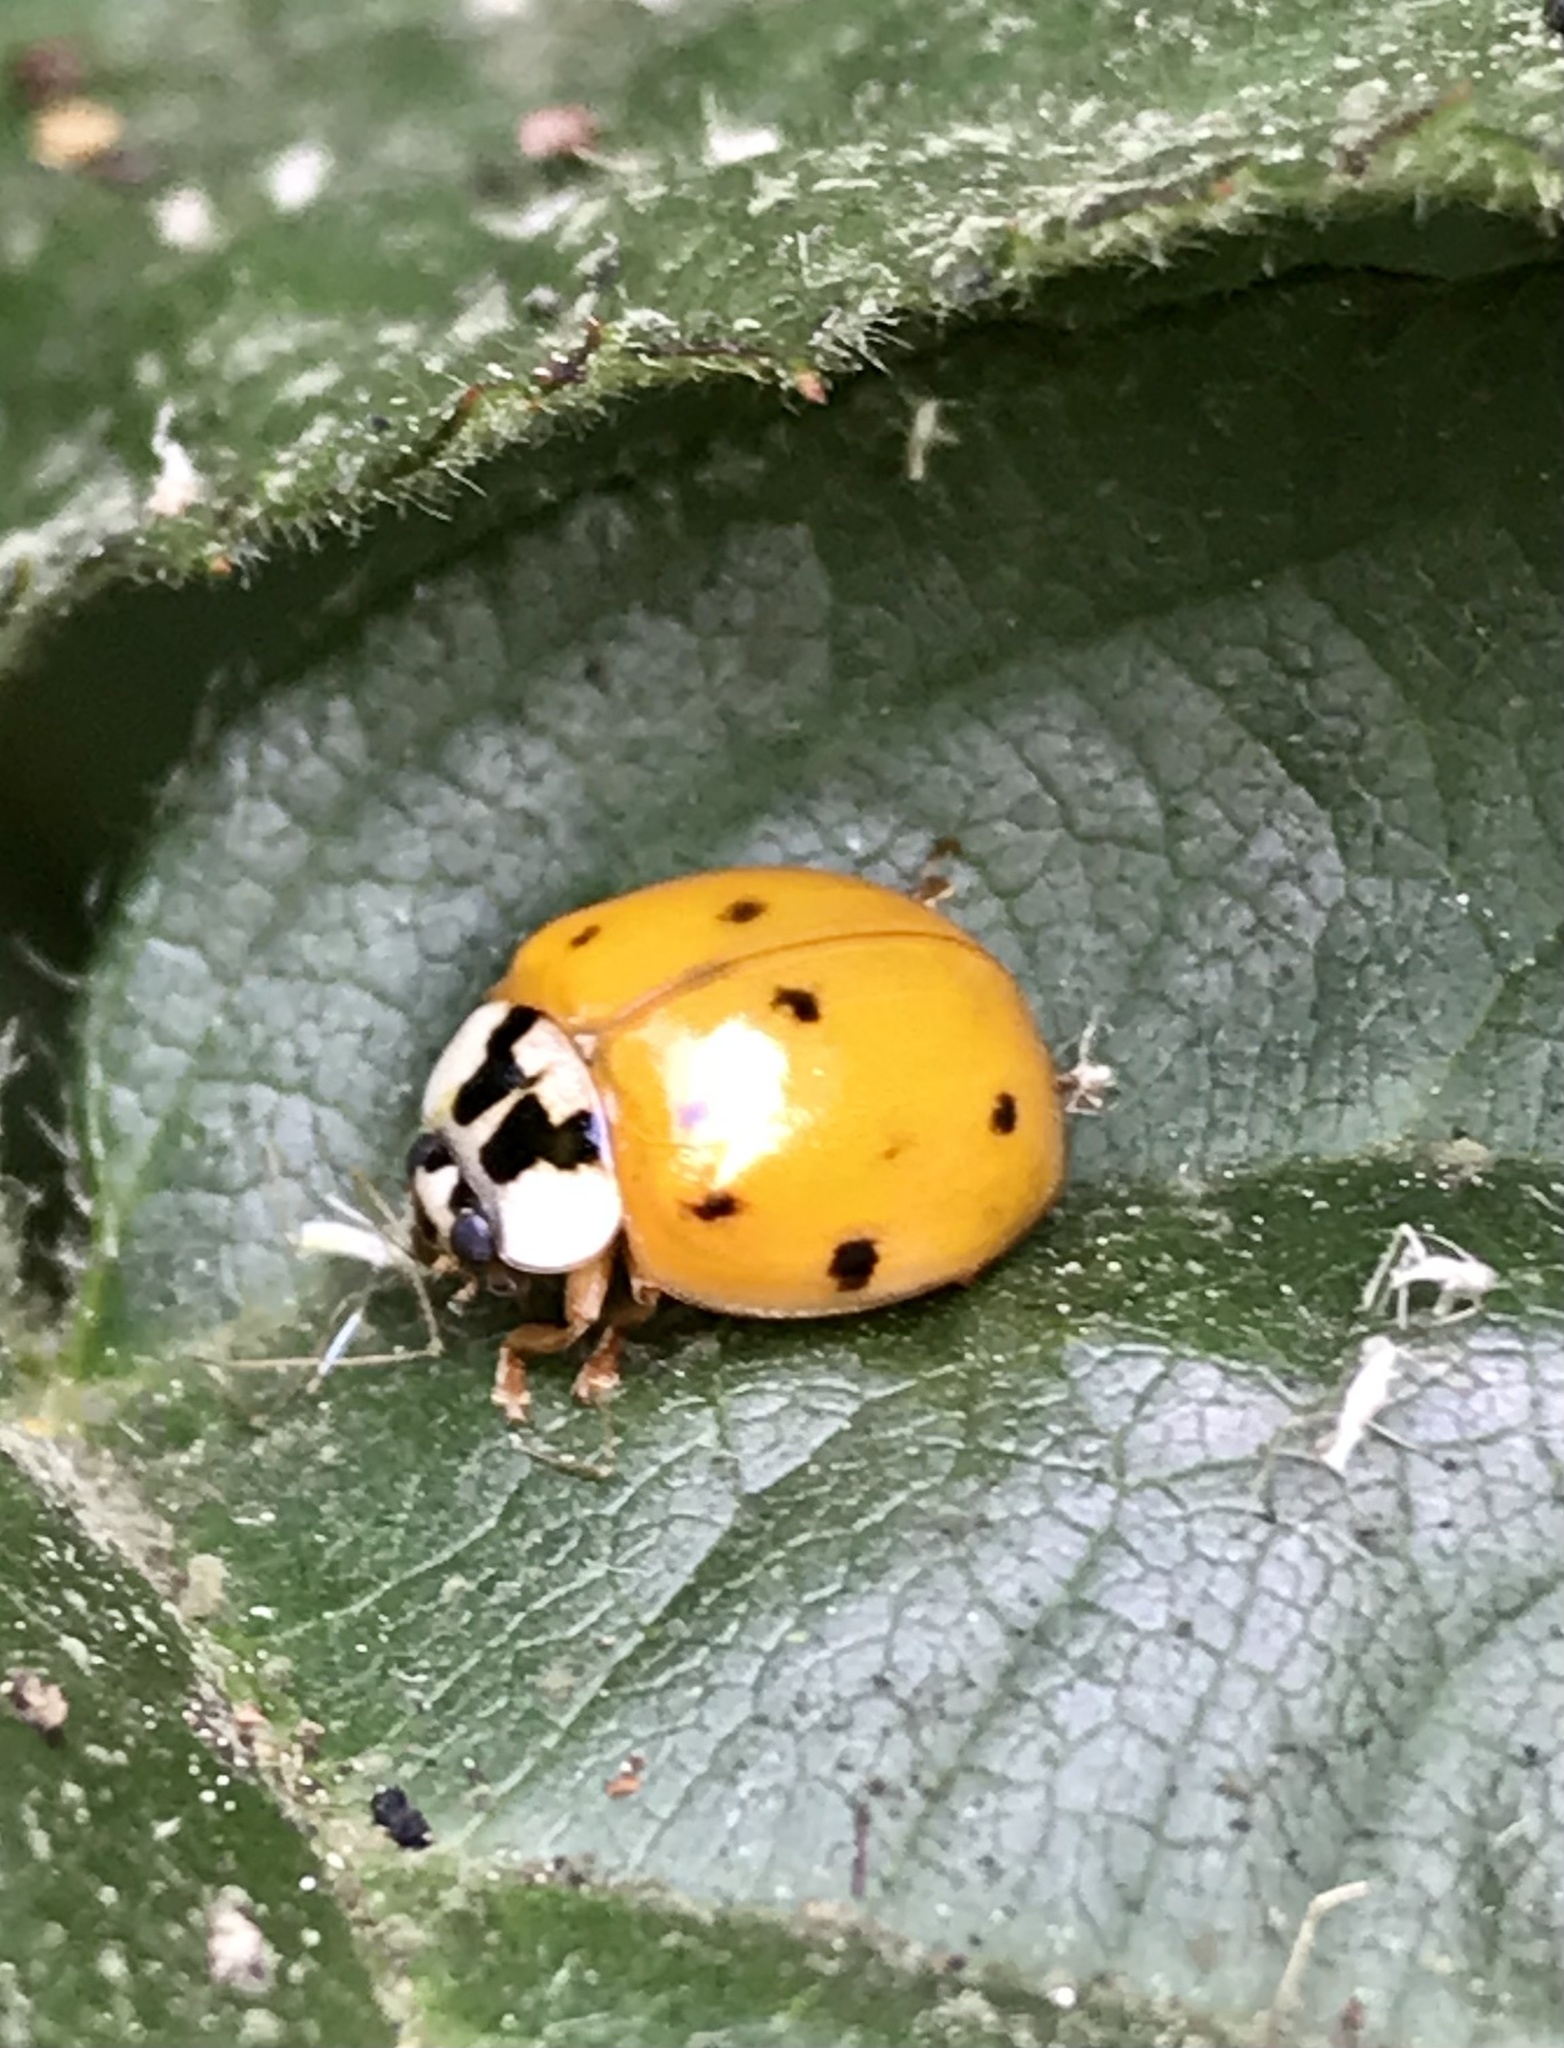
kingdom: Animalia
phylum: Arthropoda
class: Insecta
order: Coleoptera
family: Coccinellidae
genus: Harmonia
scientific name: Harmonia axyridis
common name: Harlequin ladybird
